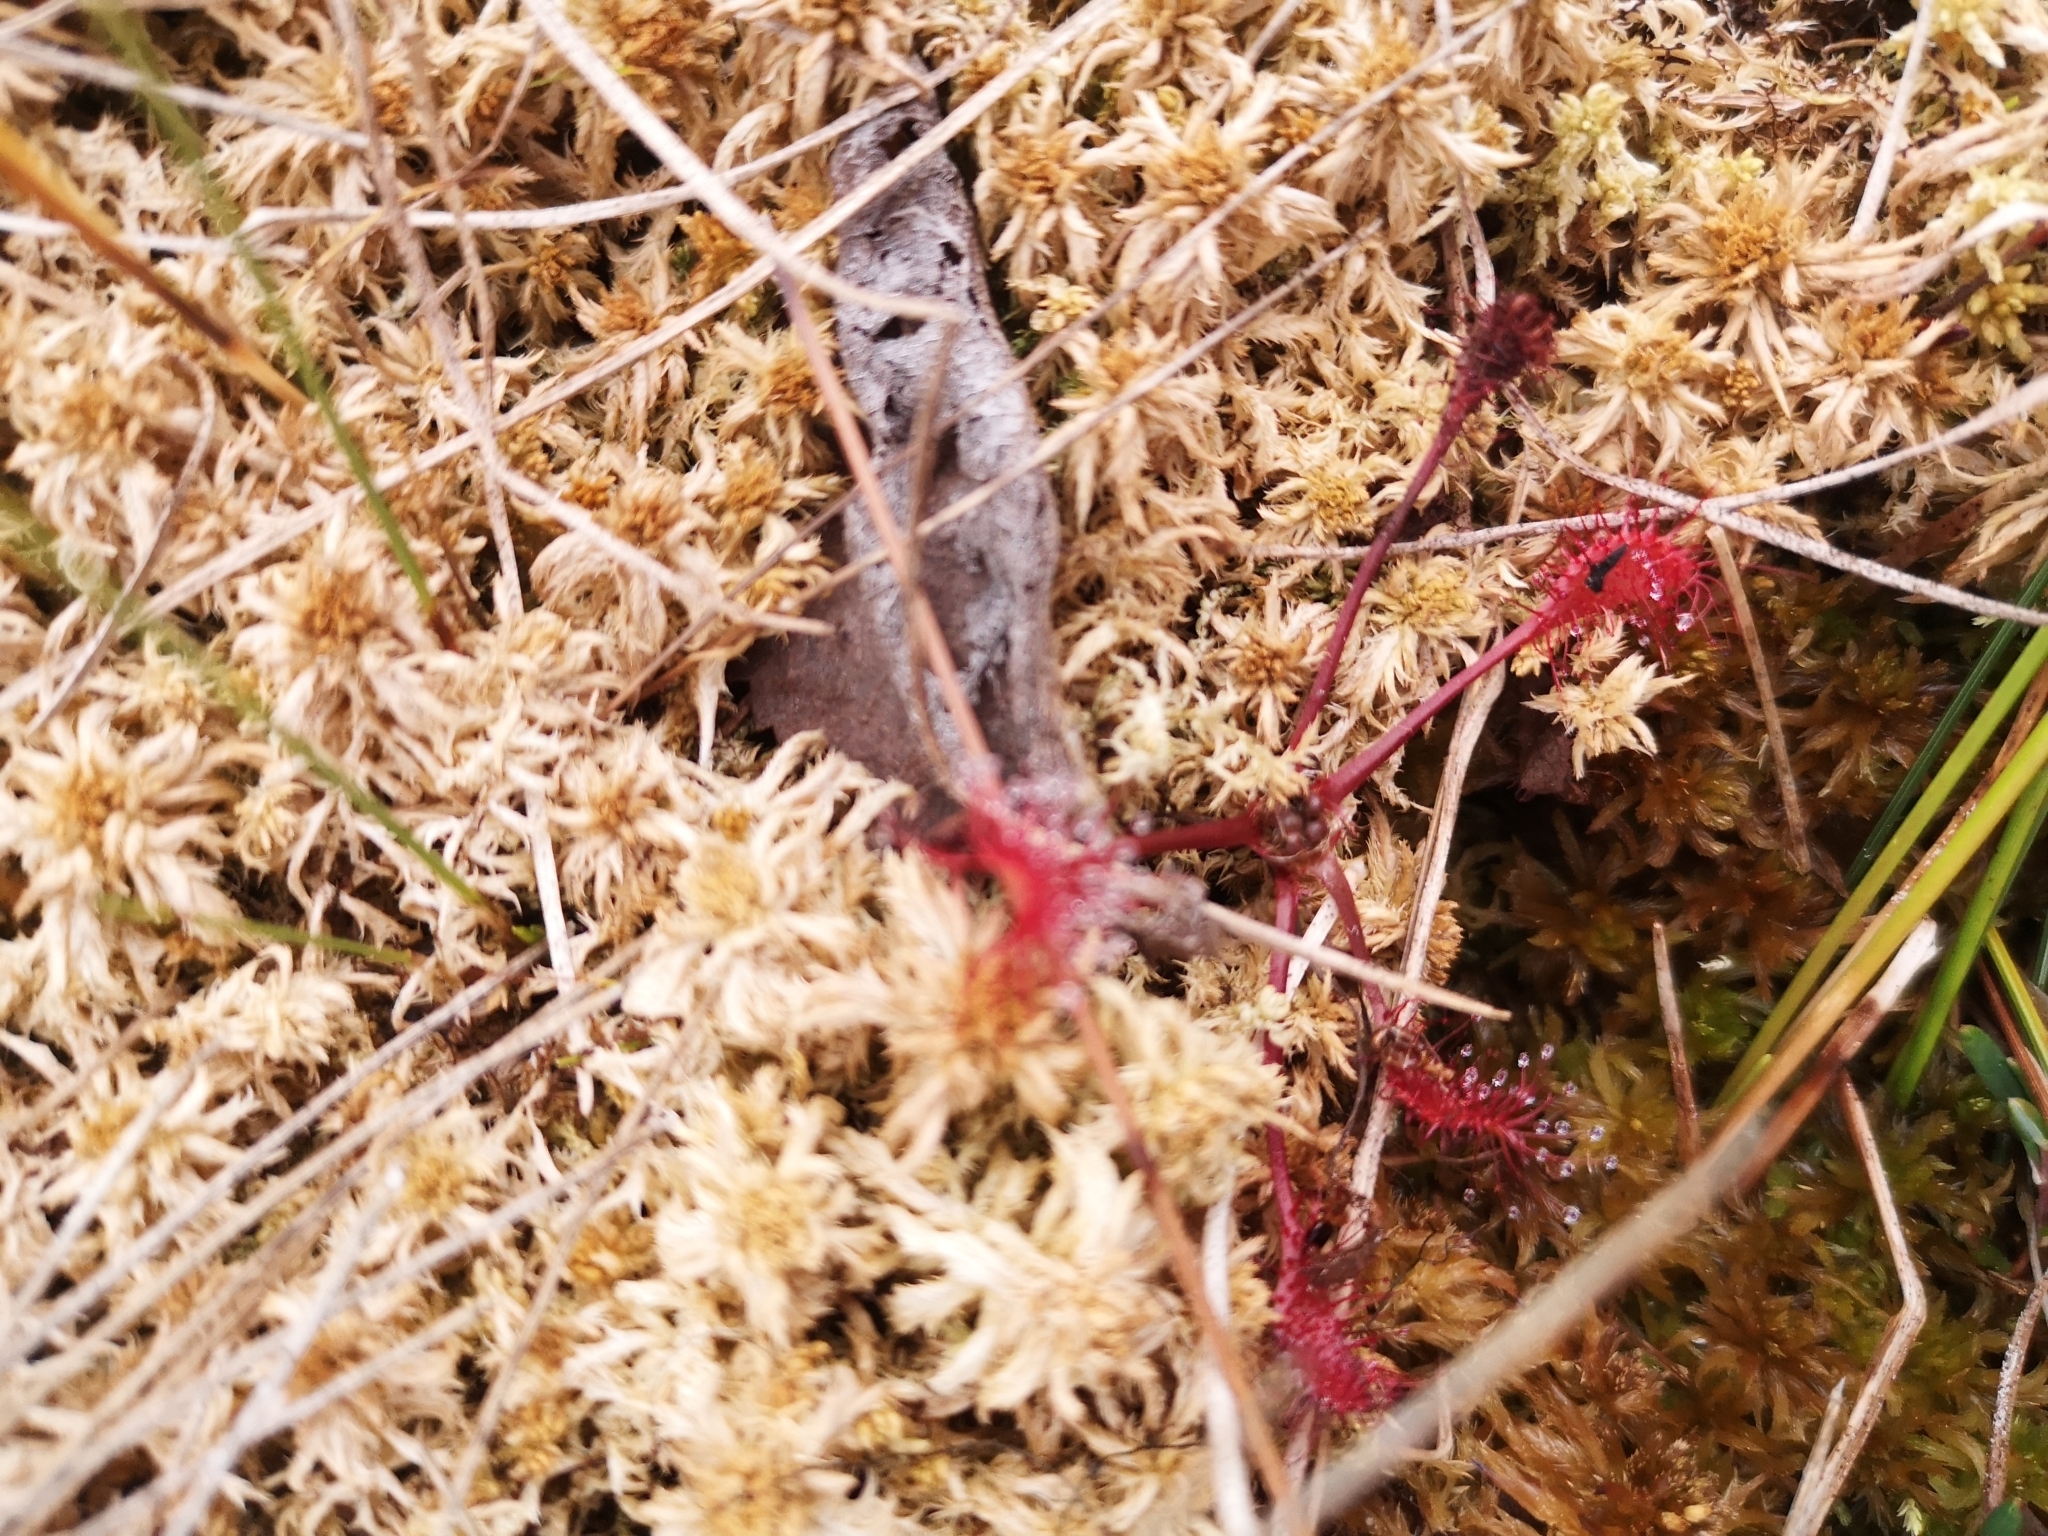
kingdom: Plantae
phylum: Tracheophyta
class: Magnoliopsida
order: Caryophyllales
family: Droseraceae
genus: Drosera
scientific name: Drosera anglica
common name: Great sundew
